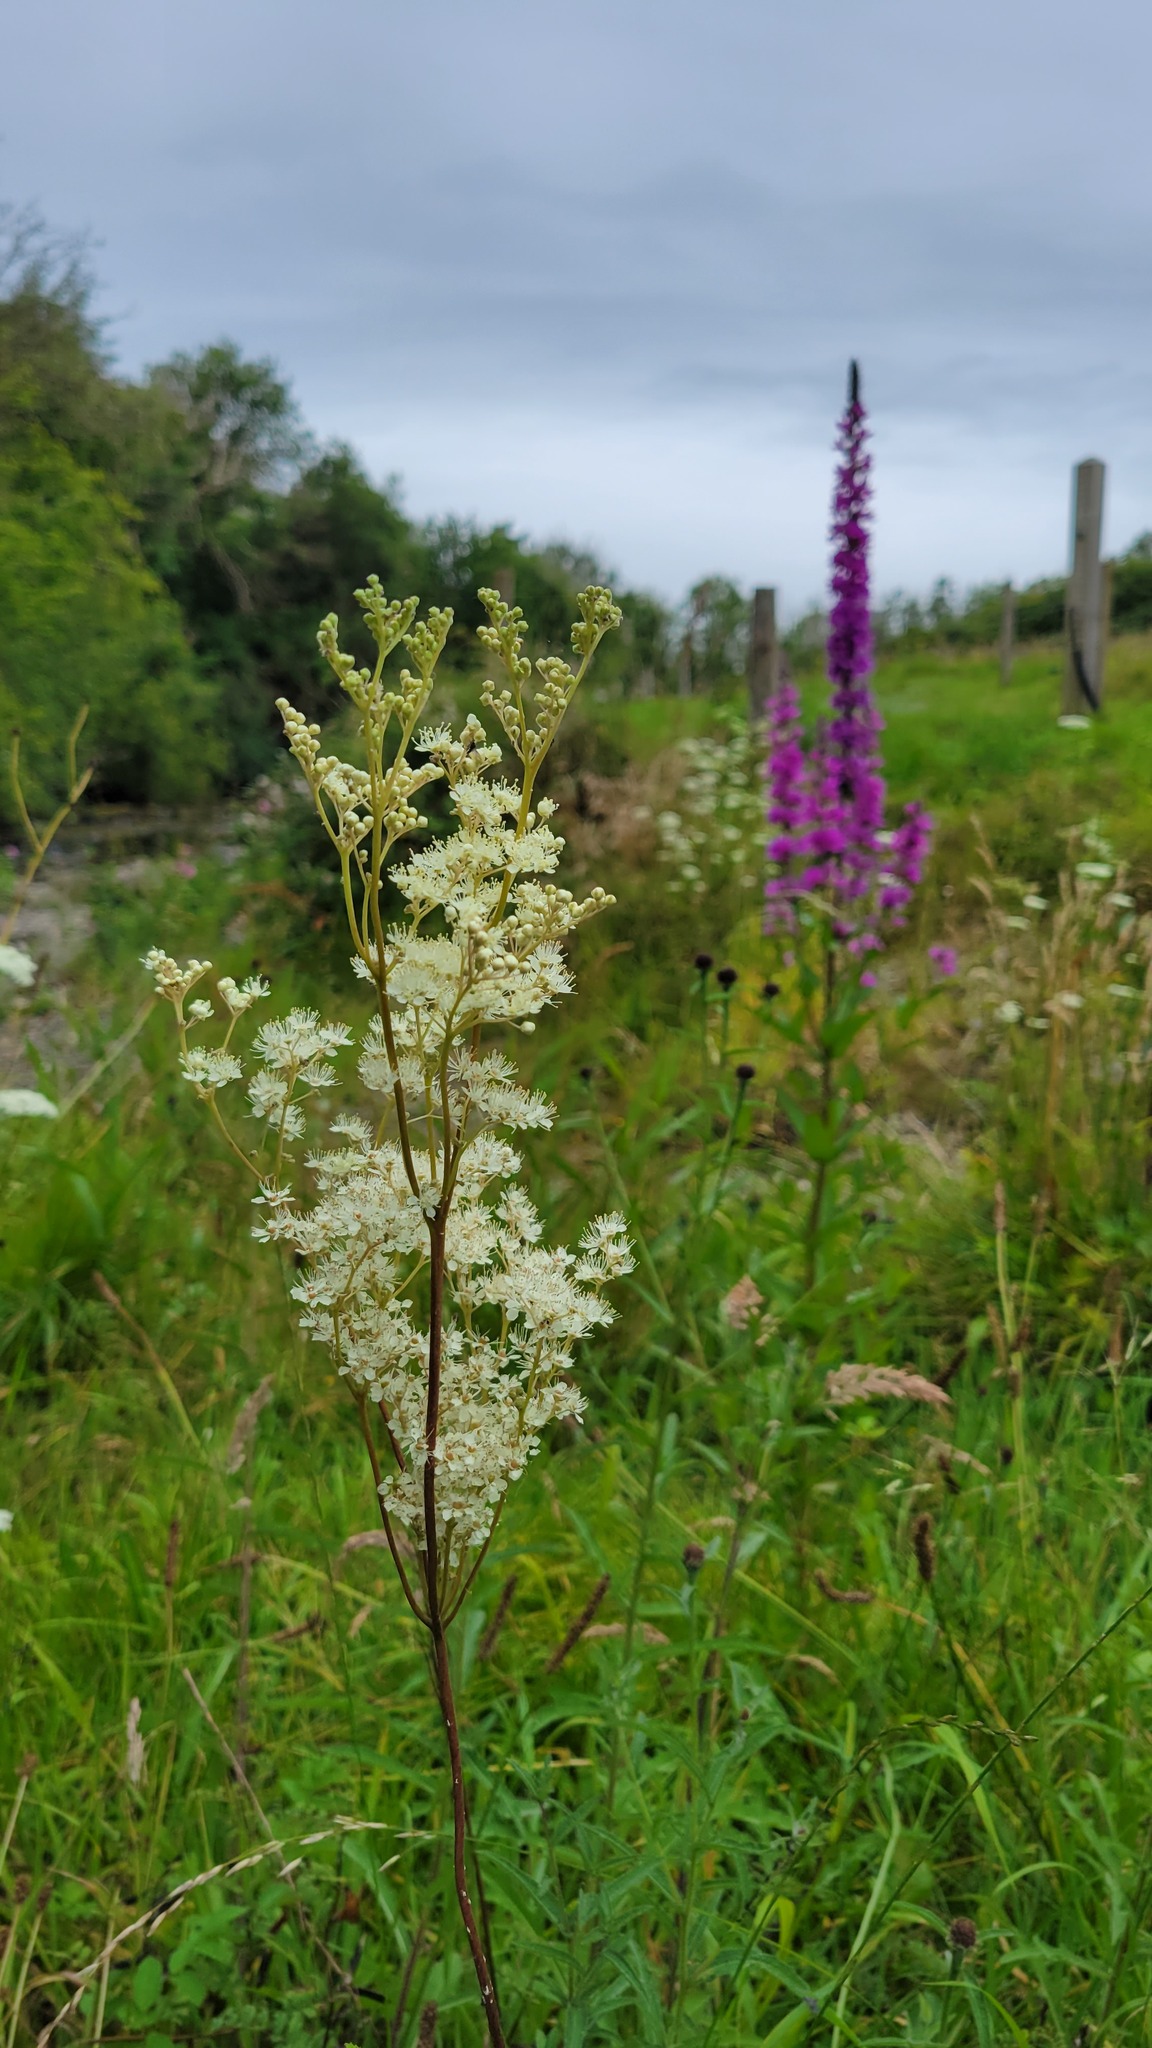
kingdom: Plantae
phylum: Tracheophyta
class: Magnoliopsida
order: Rosales
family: Rosaceae
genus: Filipendula
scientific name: Filipendula ulmaria
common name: Meadowsweet
